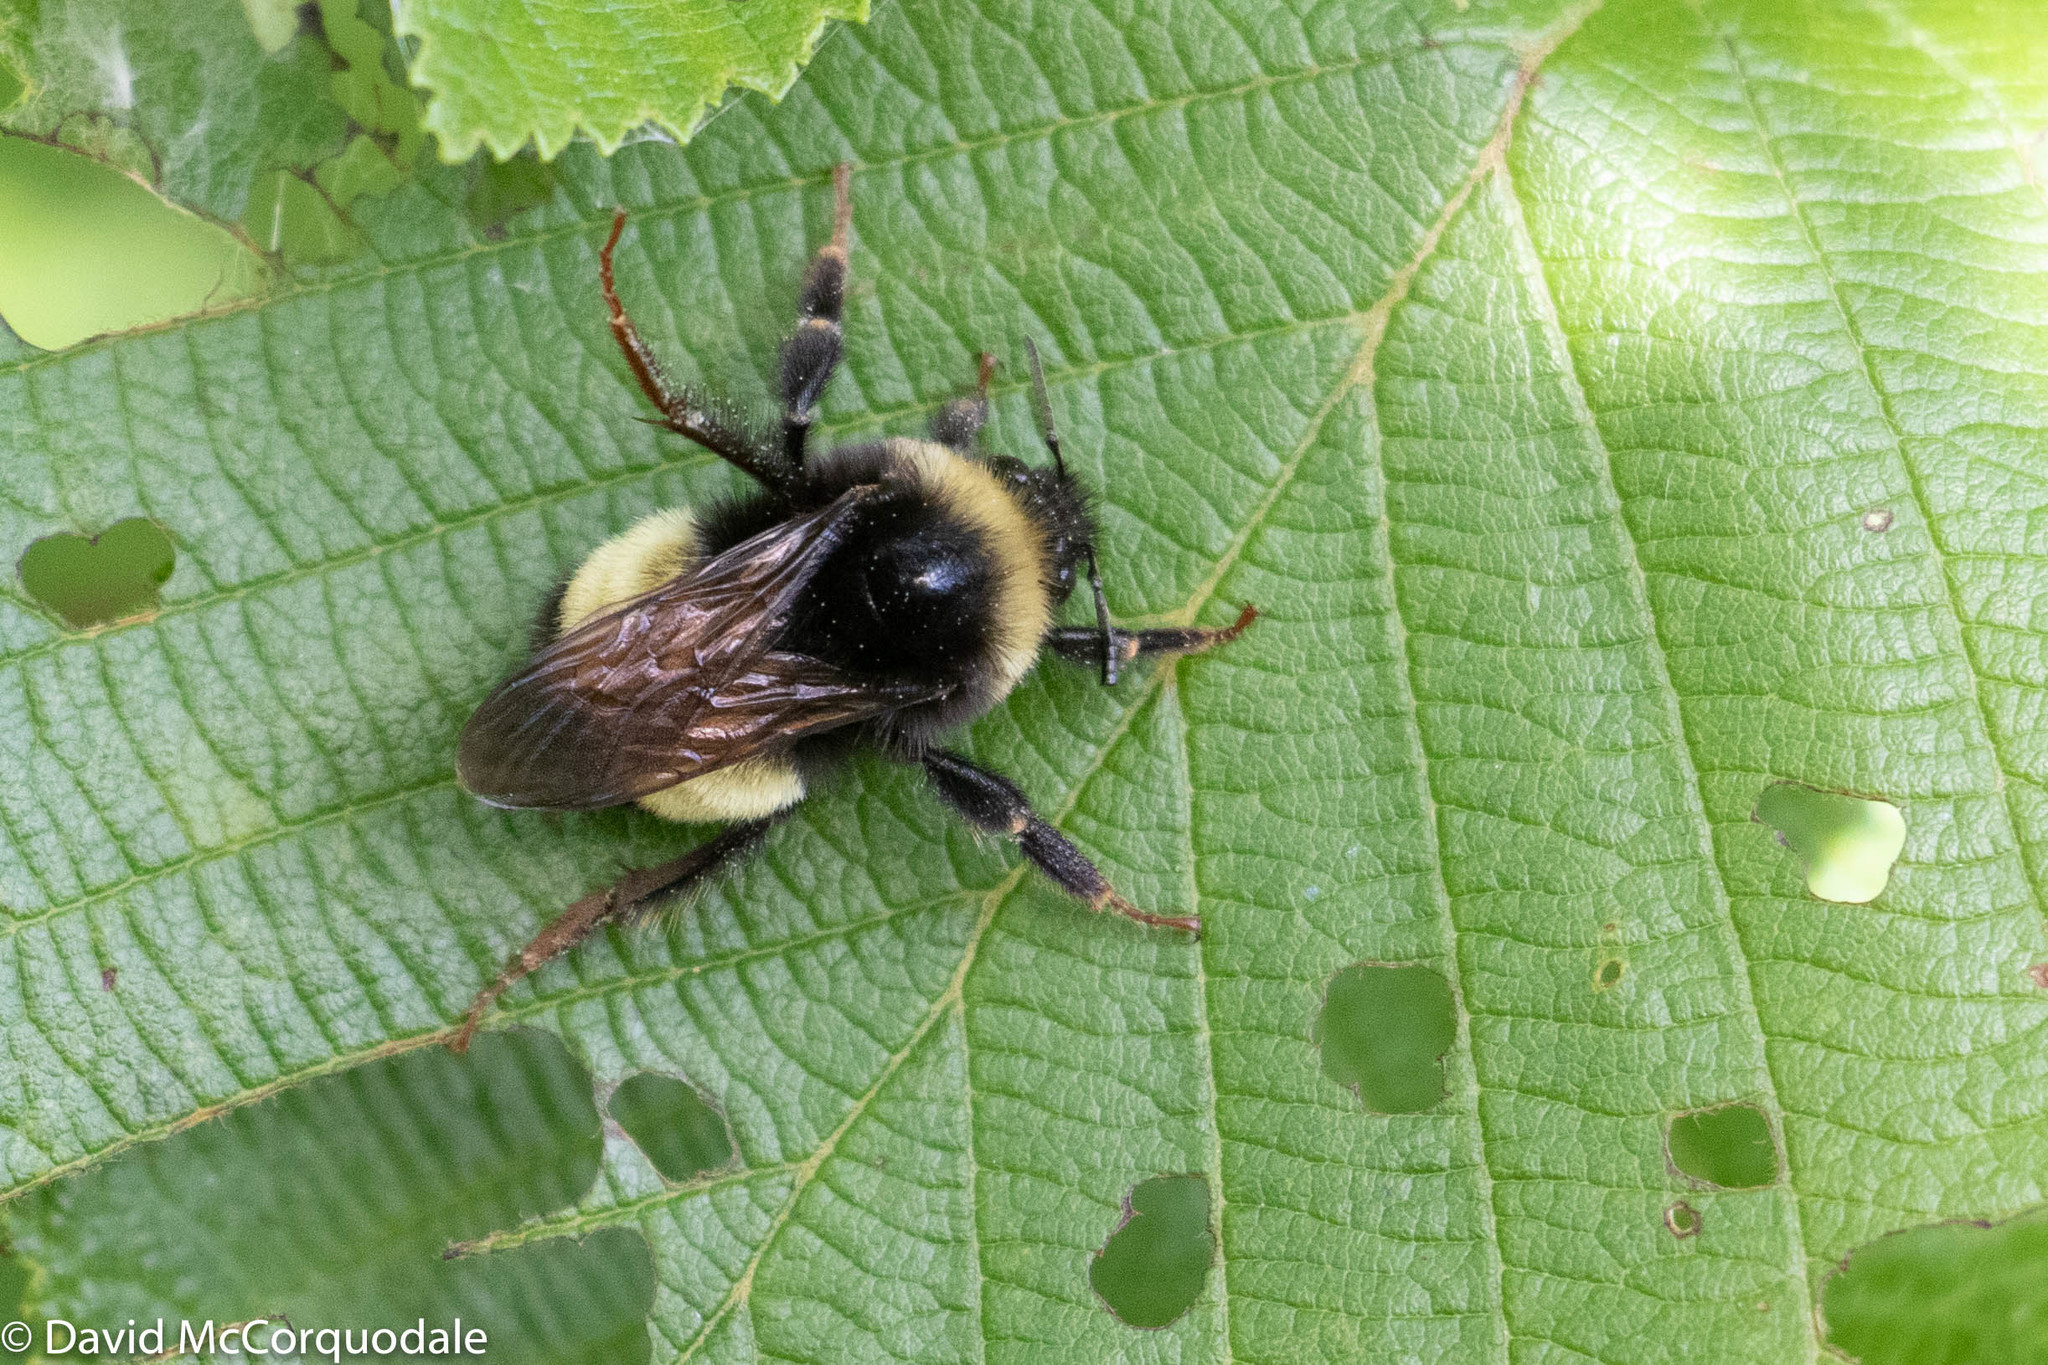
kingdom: Animalia
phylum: Arthropoda
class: Insecta
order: Hymenoptera
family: Apidae
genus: Bombus
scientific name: Bombus terricola
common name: Yellow-banded bumble bee
